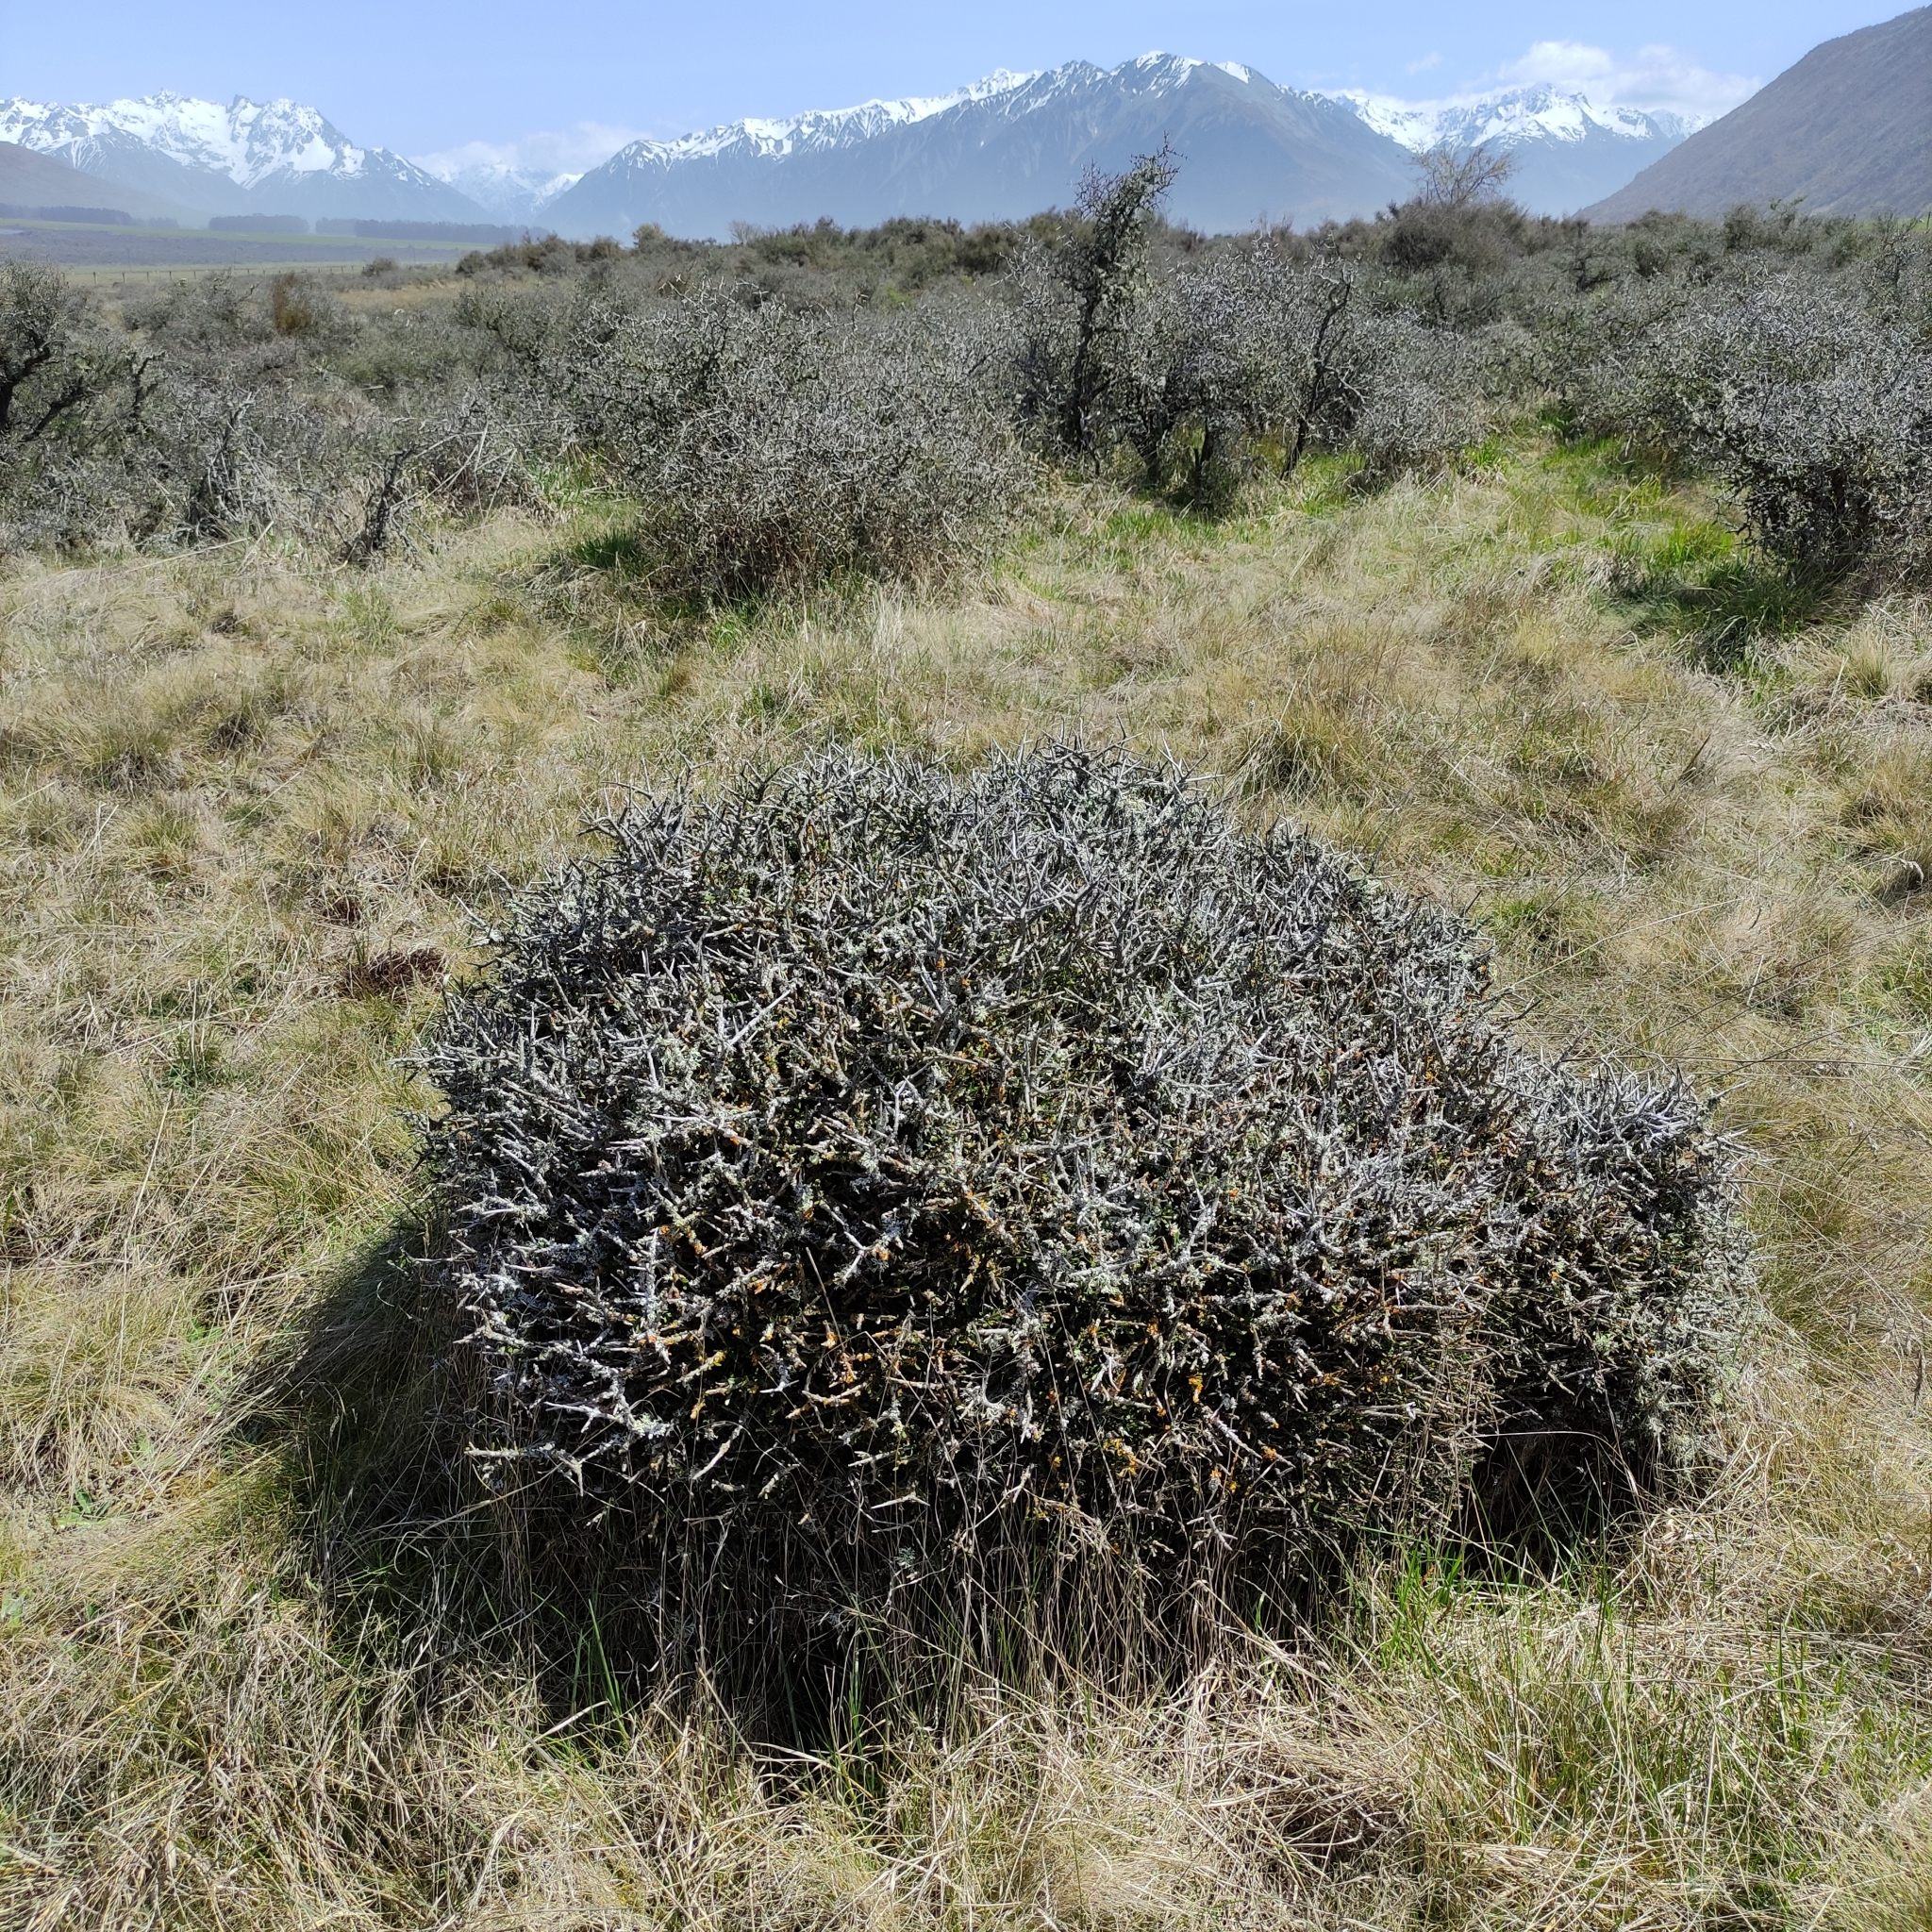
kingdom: Plantae
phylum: Tracheophyta
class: Magnoliopsida
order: Malpighiales
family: Violaceae
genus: Melicytus
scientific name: Melicytus alpinus
